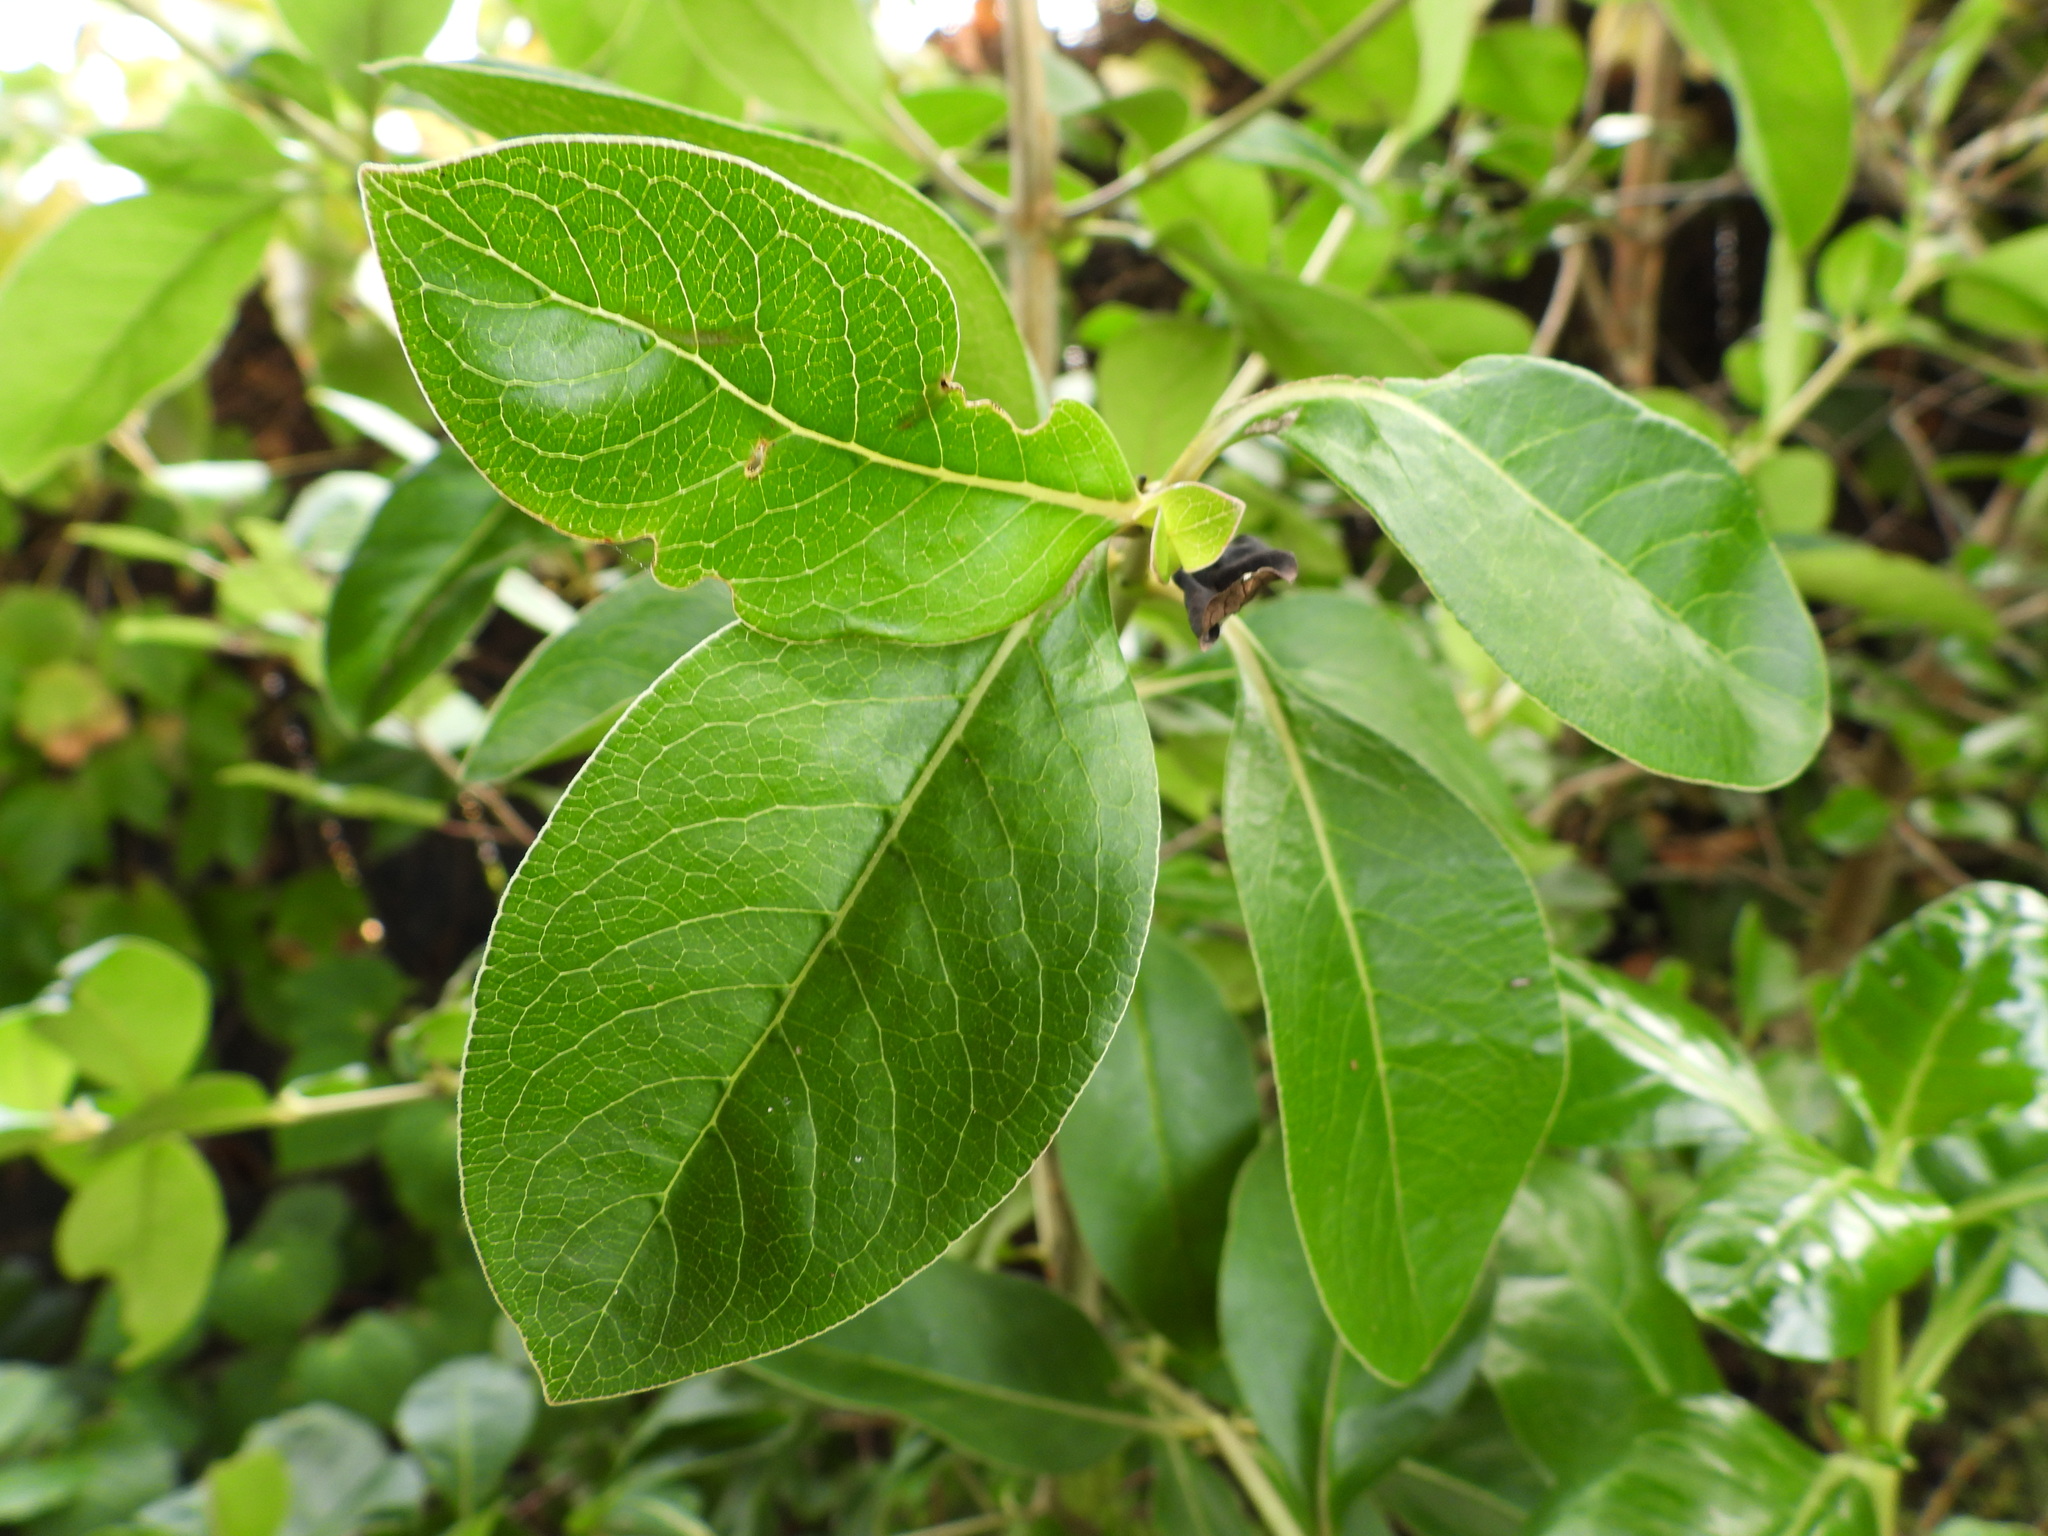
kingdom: Plantae
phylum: Tracheophyta
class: Magnoliopsida
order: Gentianales
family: Rubiaceae
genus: Coprosma
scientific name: Coprosma robusta
